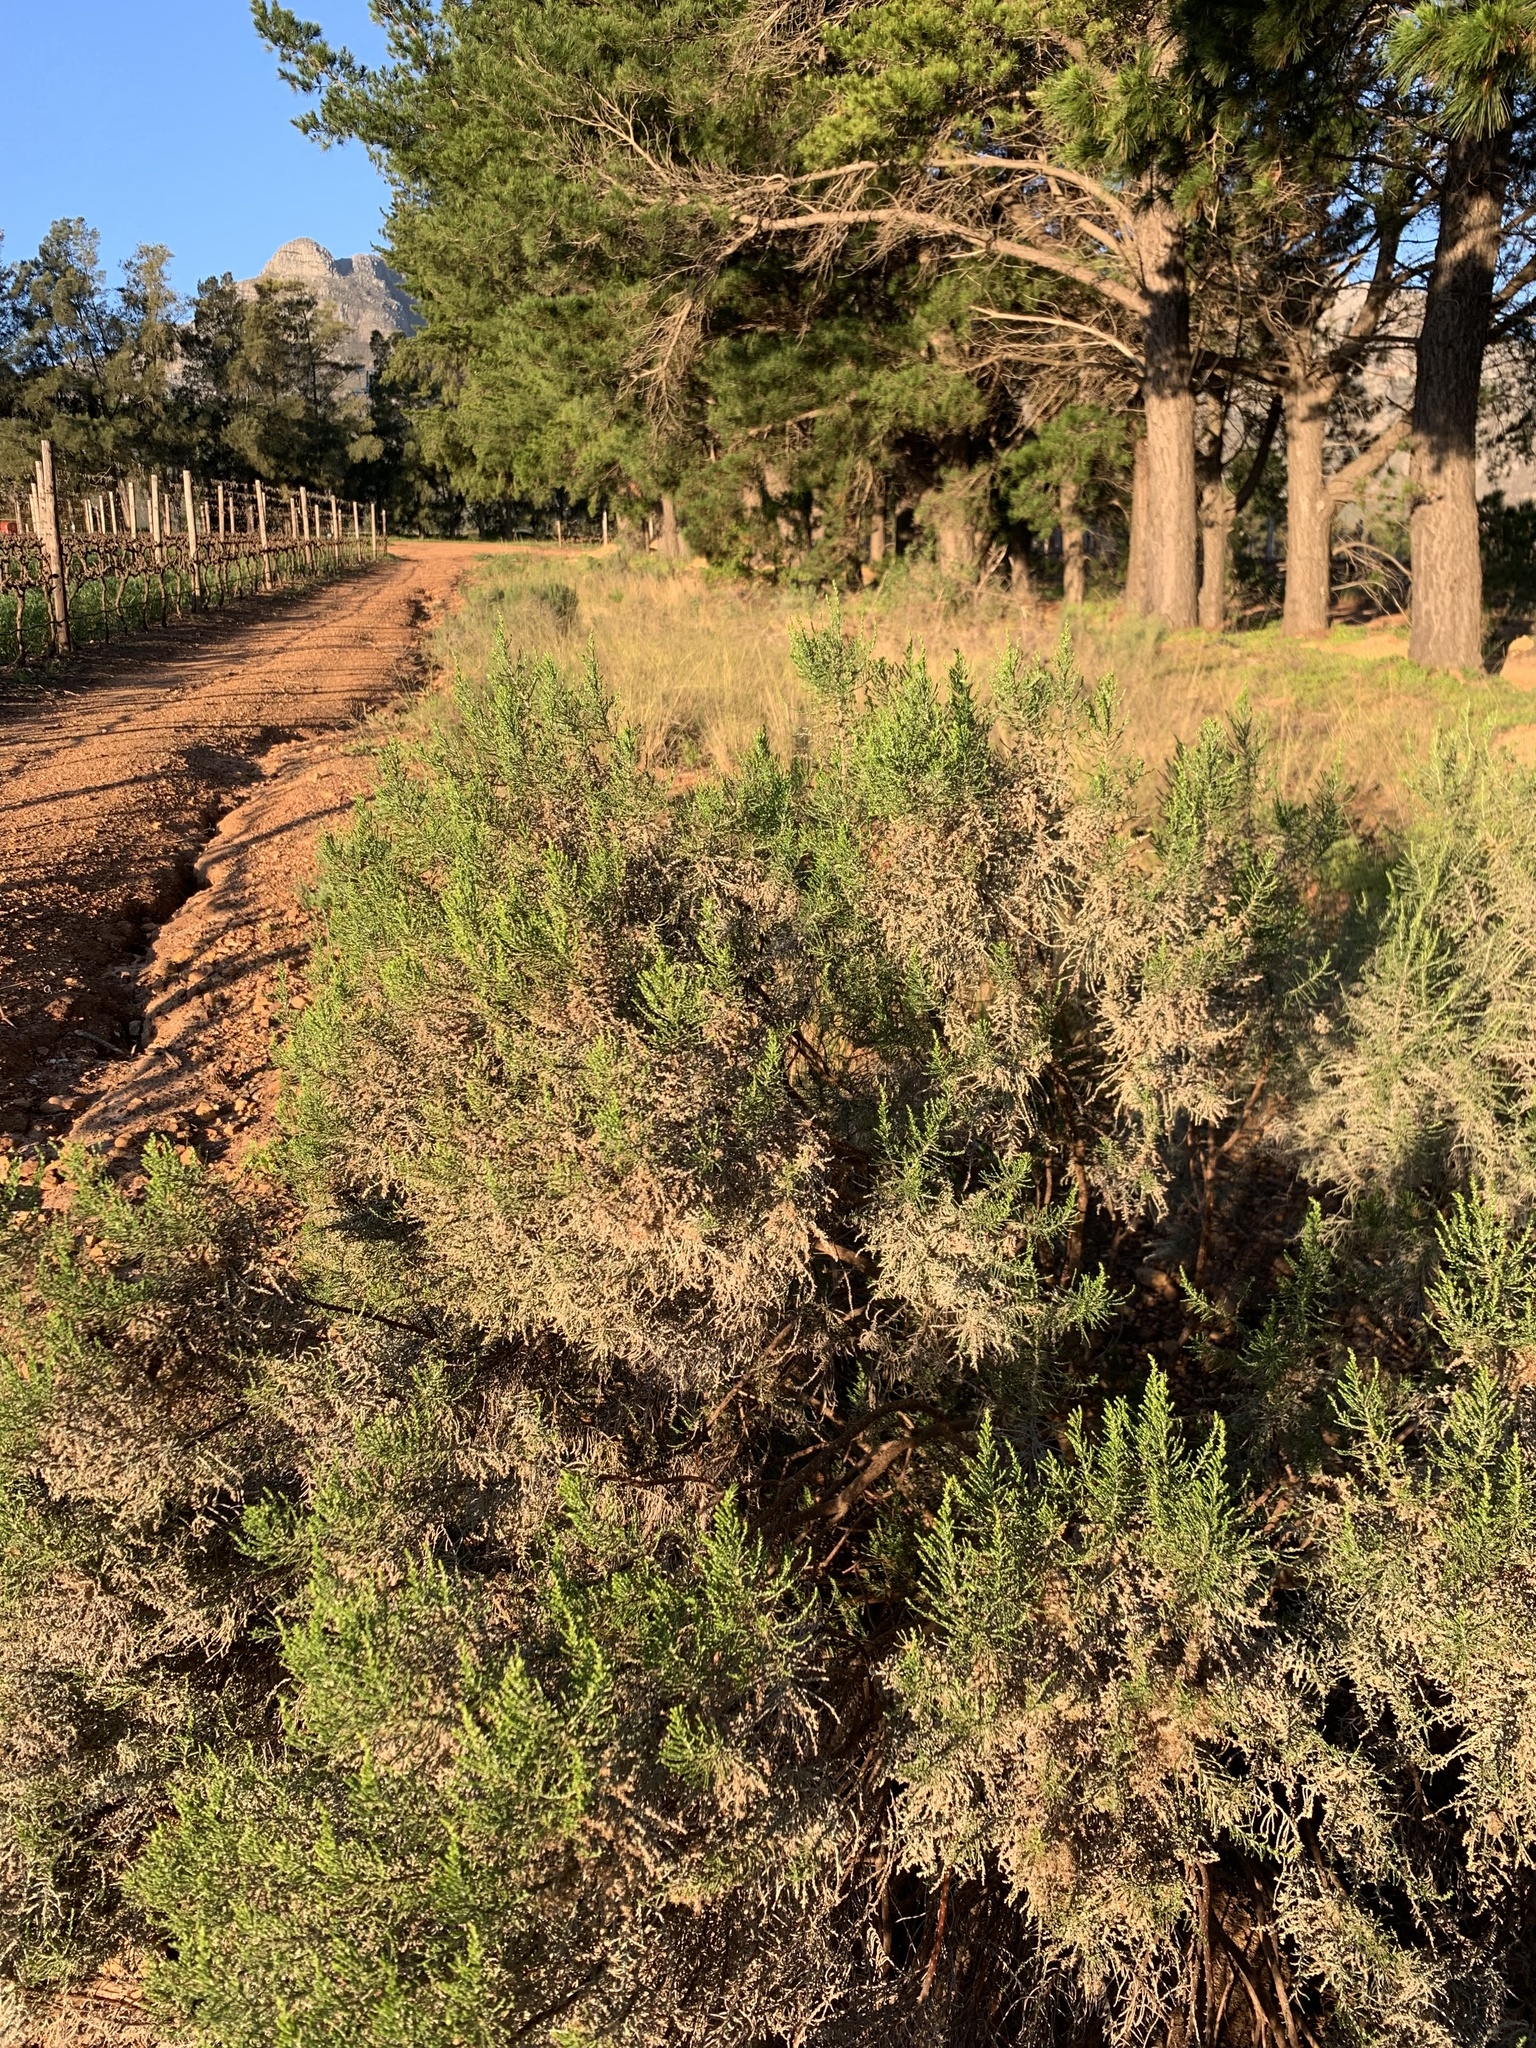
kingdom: Plantae
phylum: Tracheophyta
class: Magnoliopsida
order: Asterales
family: Asteraceae
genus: Dicerothamnus
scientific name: Dicerothamnus rhinocerotis
